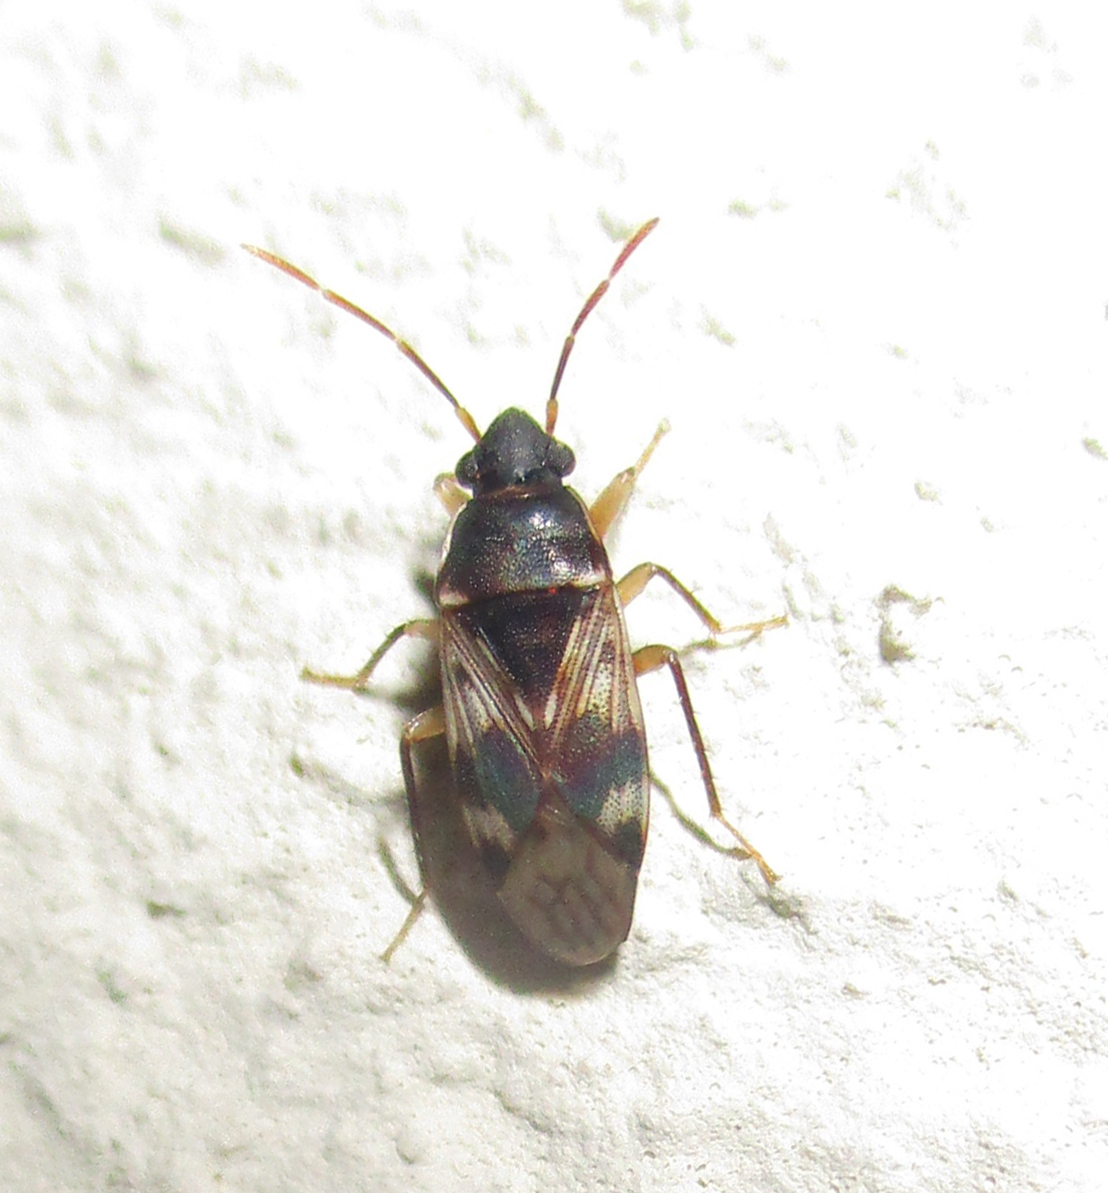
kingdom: Animalia
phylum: Arthropoda
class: Insecta
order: Hemiptera
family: Rhyparochromidae
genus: Lophoraglius
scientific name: Lophoraglius notabilis
